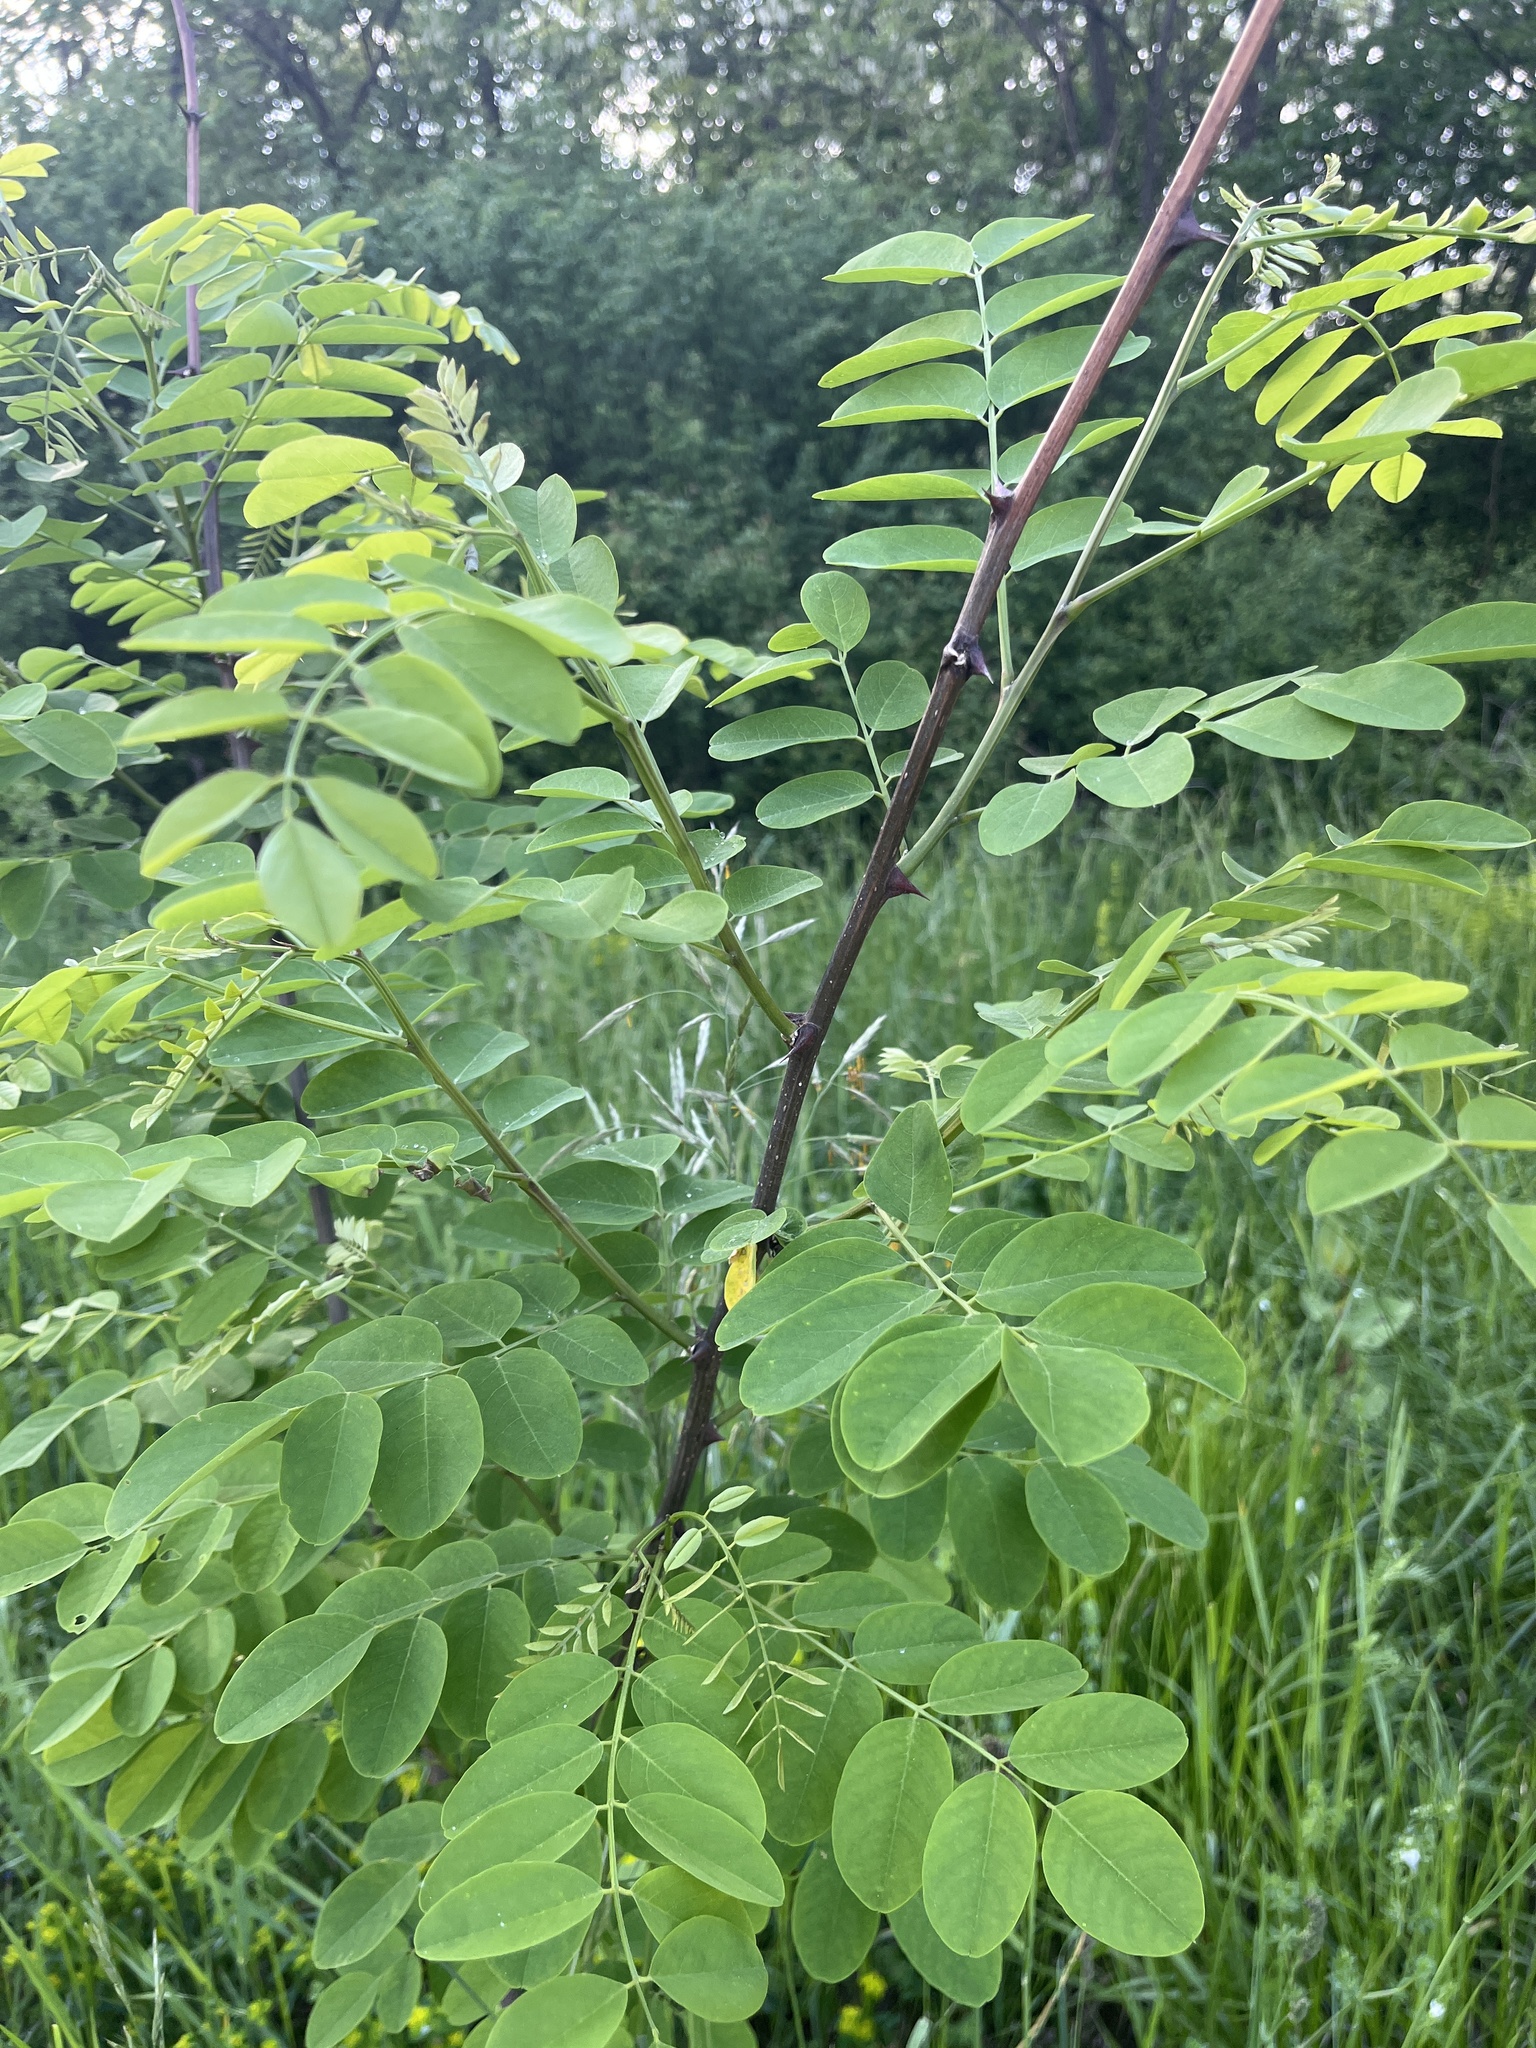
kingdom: Plantae
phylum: Tracheophyta
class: Magnoliopsida
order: Fabales
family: Fabaceae
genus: Robinia
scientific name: Robinia pseudoacacia
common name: Black locust
